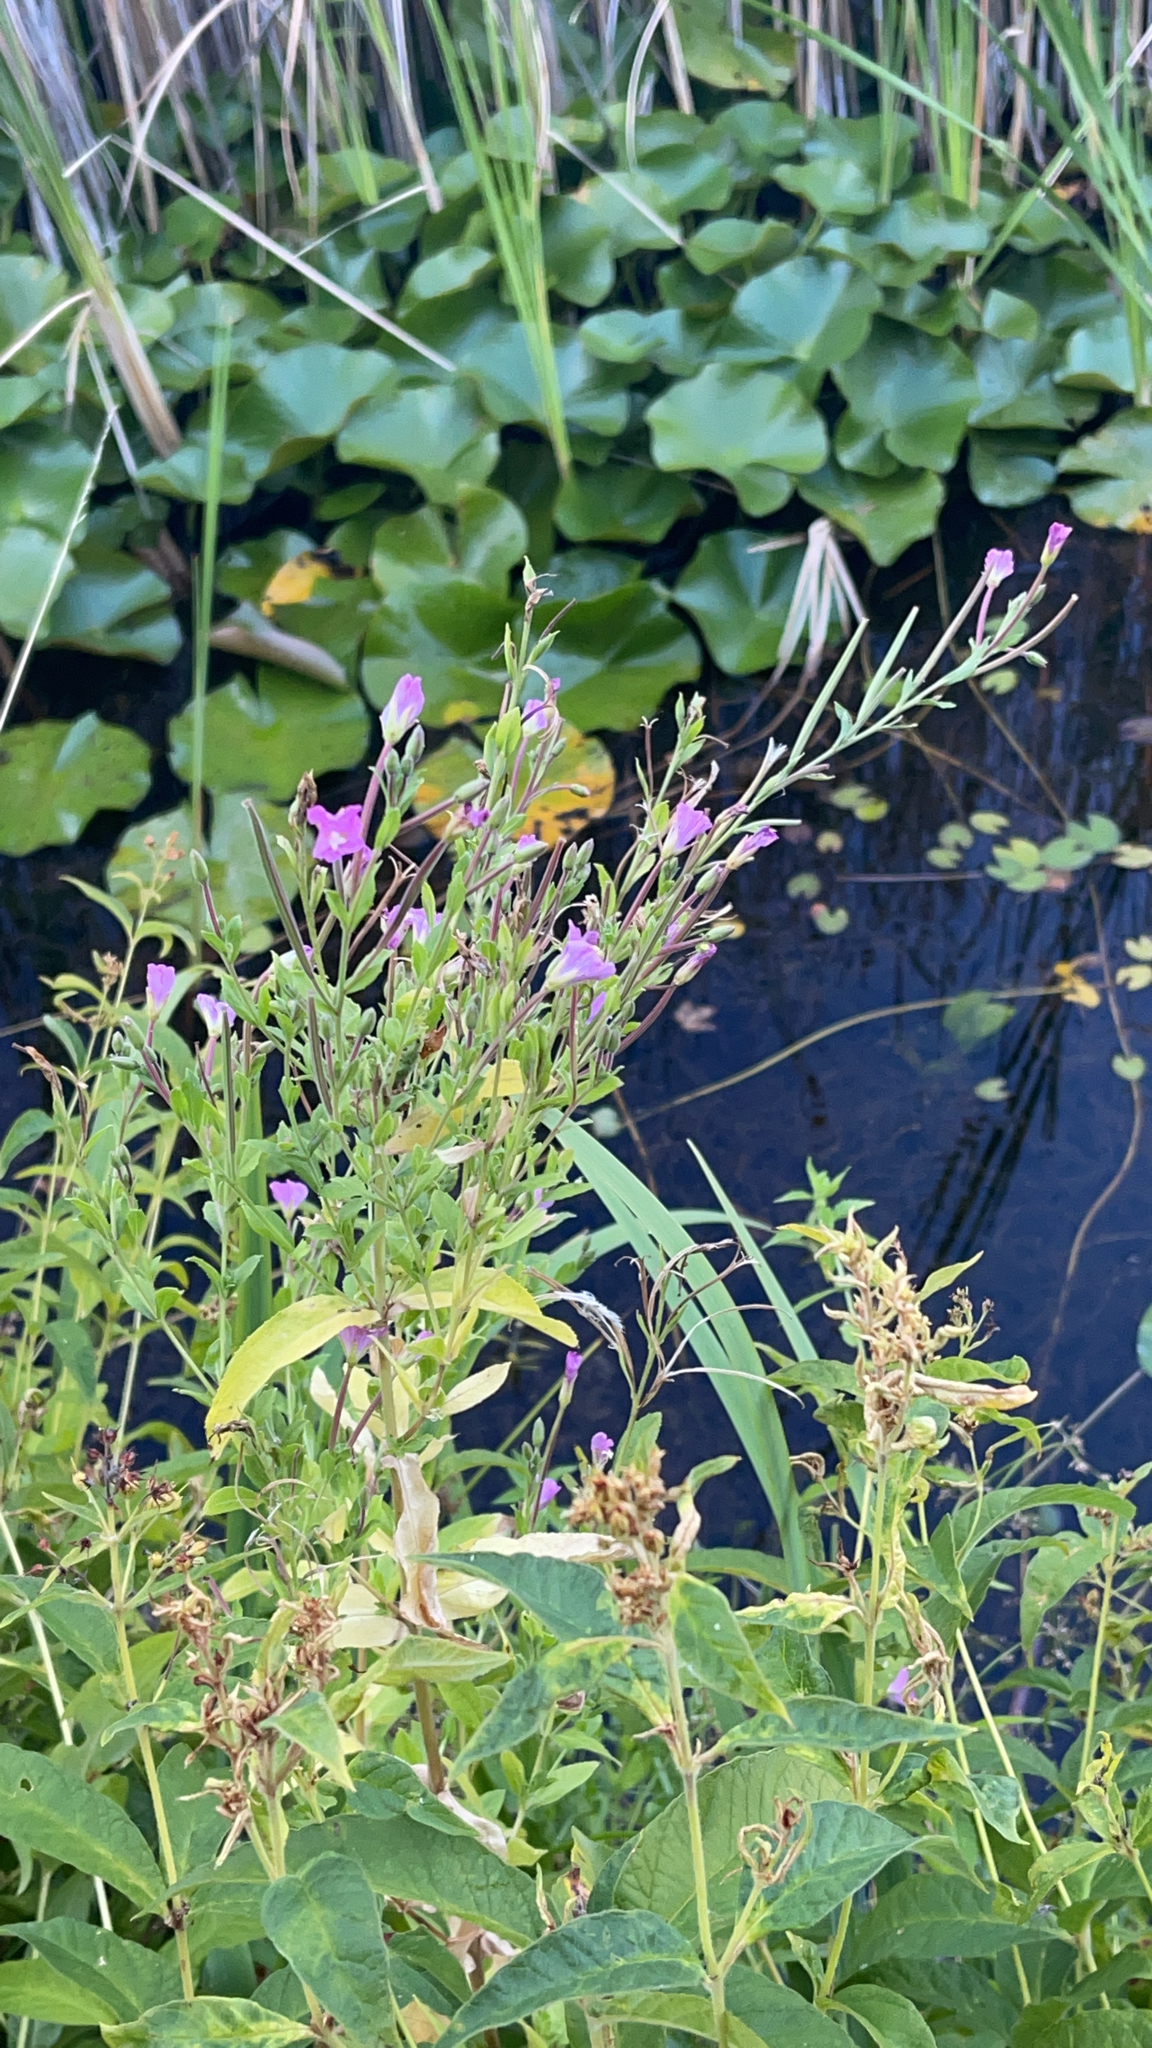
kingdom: Plantae
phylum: Tracheophyta
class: Magnoliopsida
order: Myrtales
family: Onagraceae
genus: Epilobium
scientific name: Epilobium hirsutum
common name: Great willowherb
